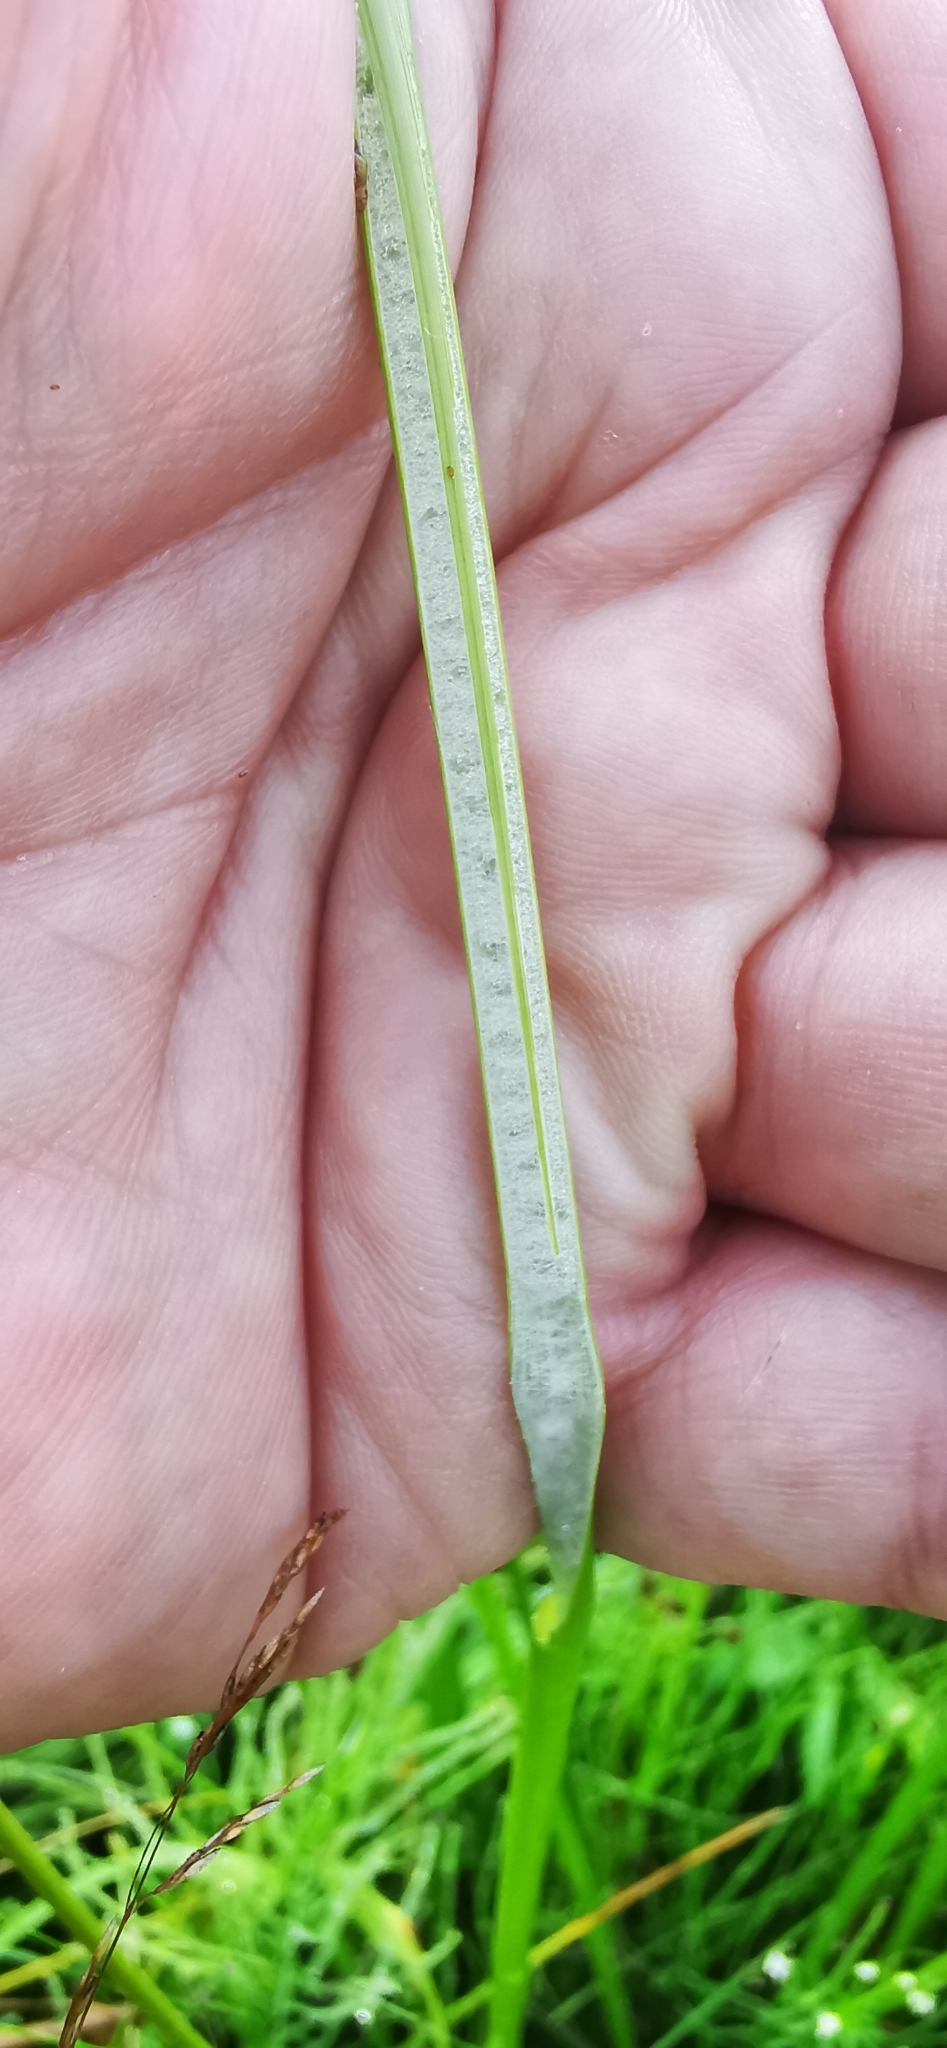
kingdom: Plantae
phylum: Tracheophyta
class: Liliopsida
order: Poales
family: Juncaceae
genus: Juncus
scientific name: Juncus effusus
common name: Soft rush
